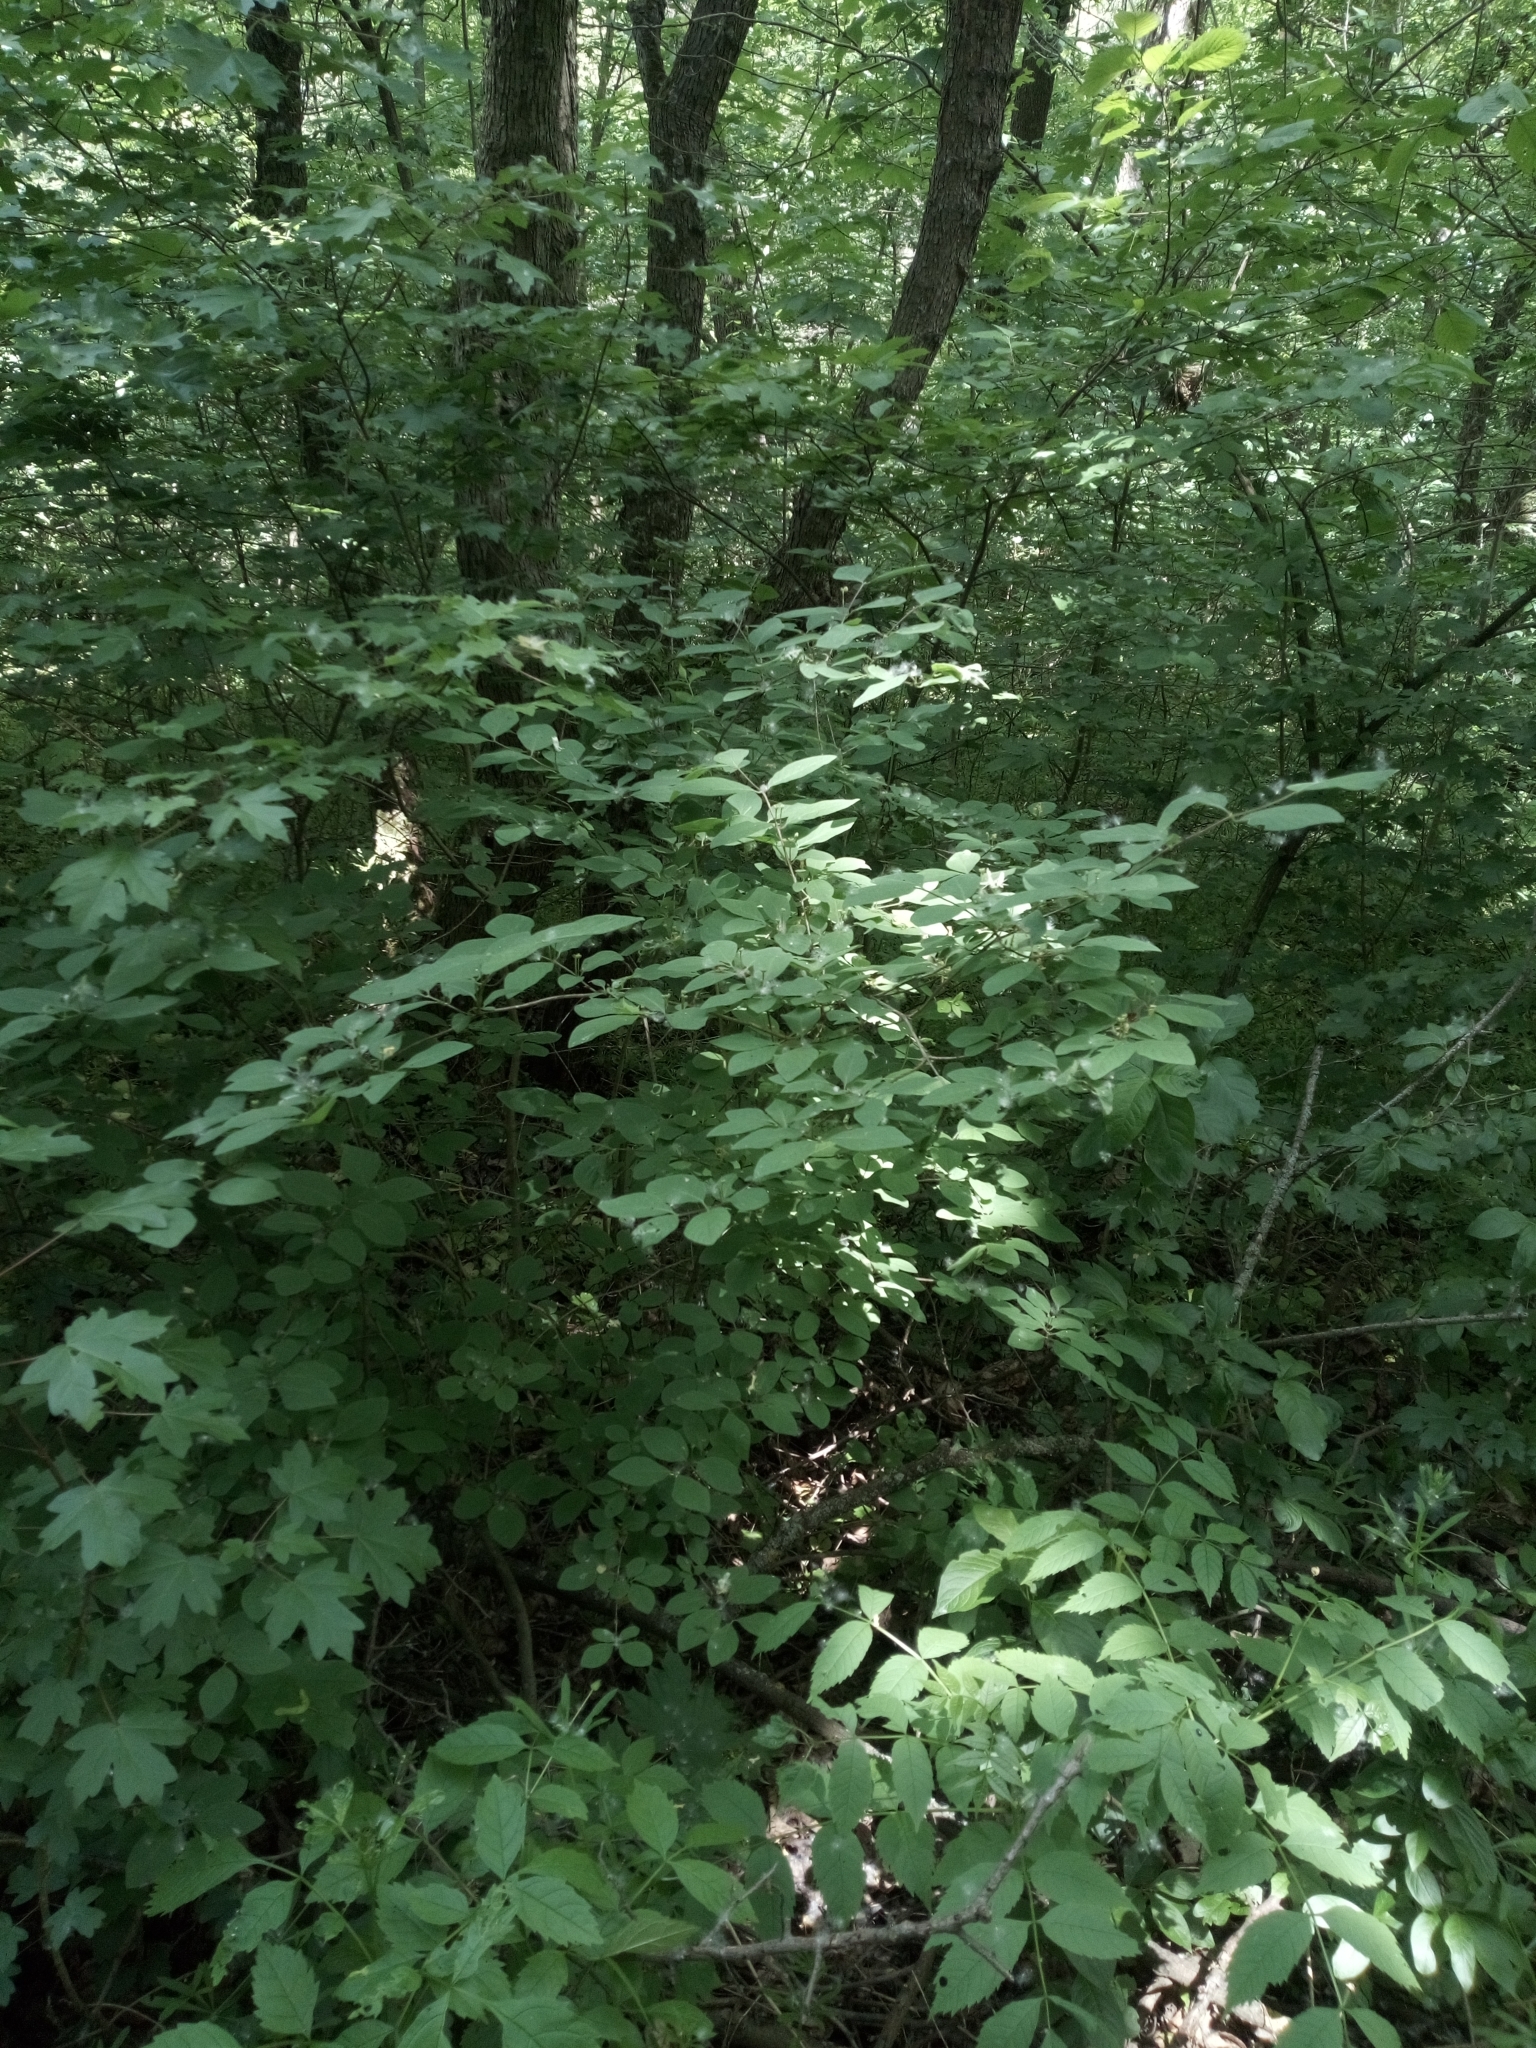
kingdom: Plantae
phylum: Tracheophyta
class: Magnoliopsida
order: Dipsacales
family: Caprifoliaceae
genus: Lonicera
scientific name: Lonicera xylosteum
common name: Fly honeysuckle
